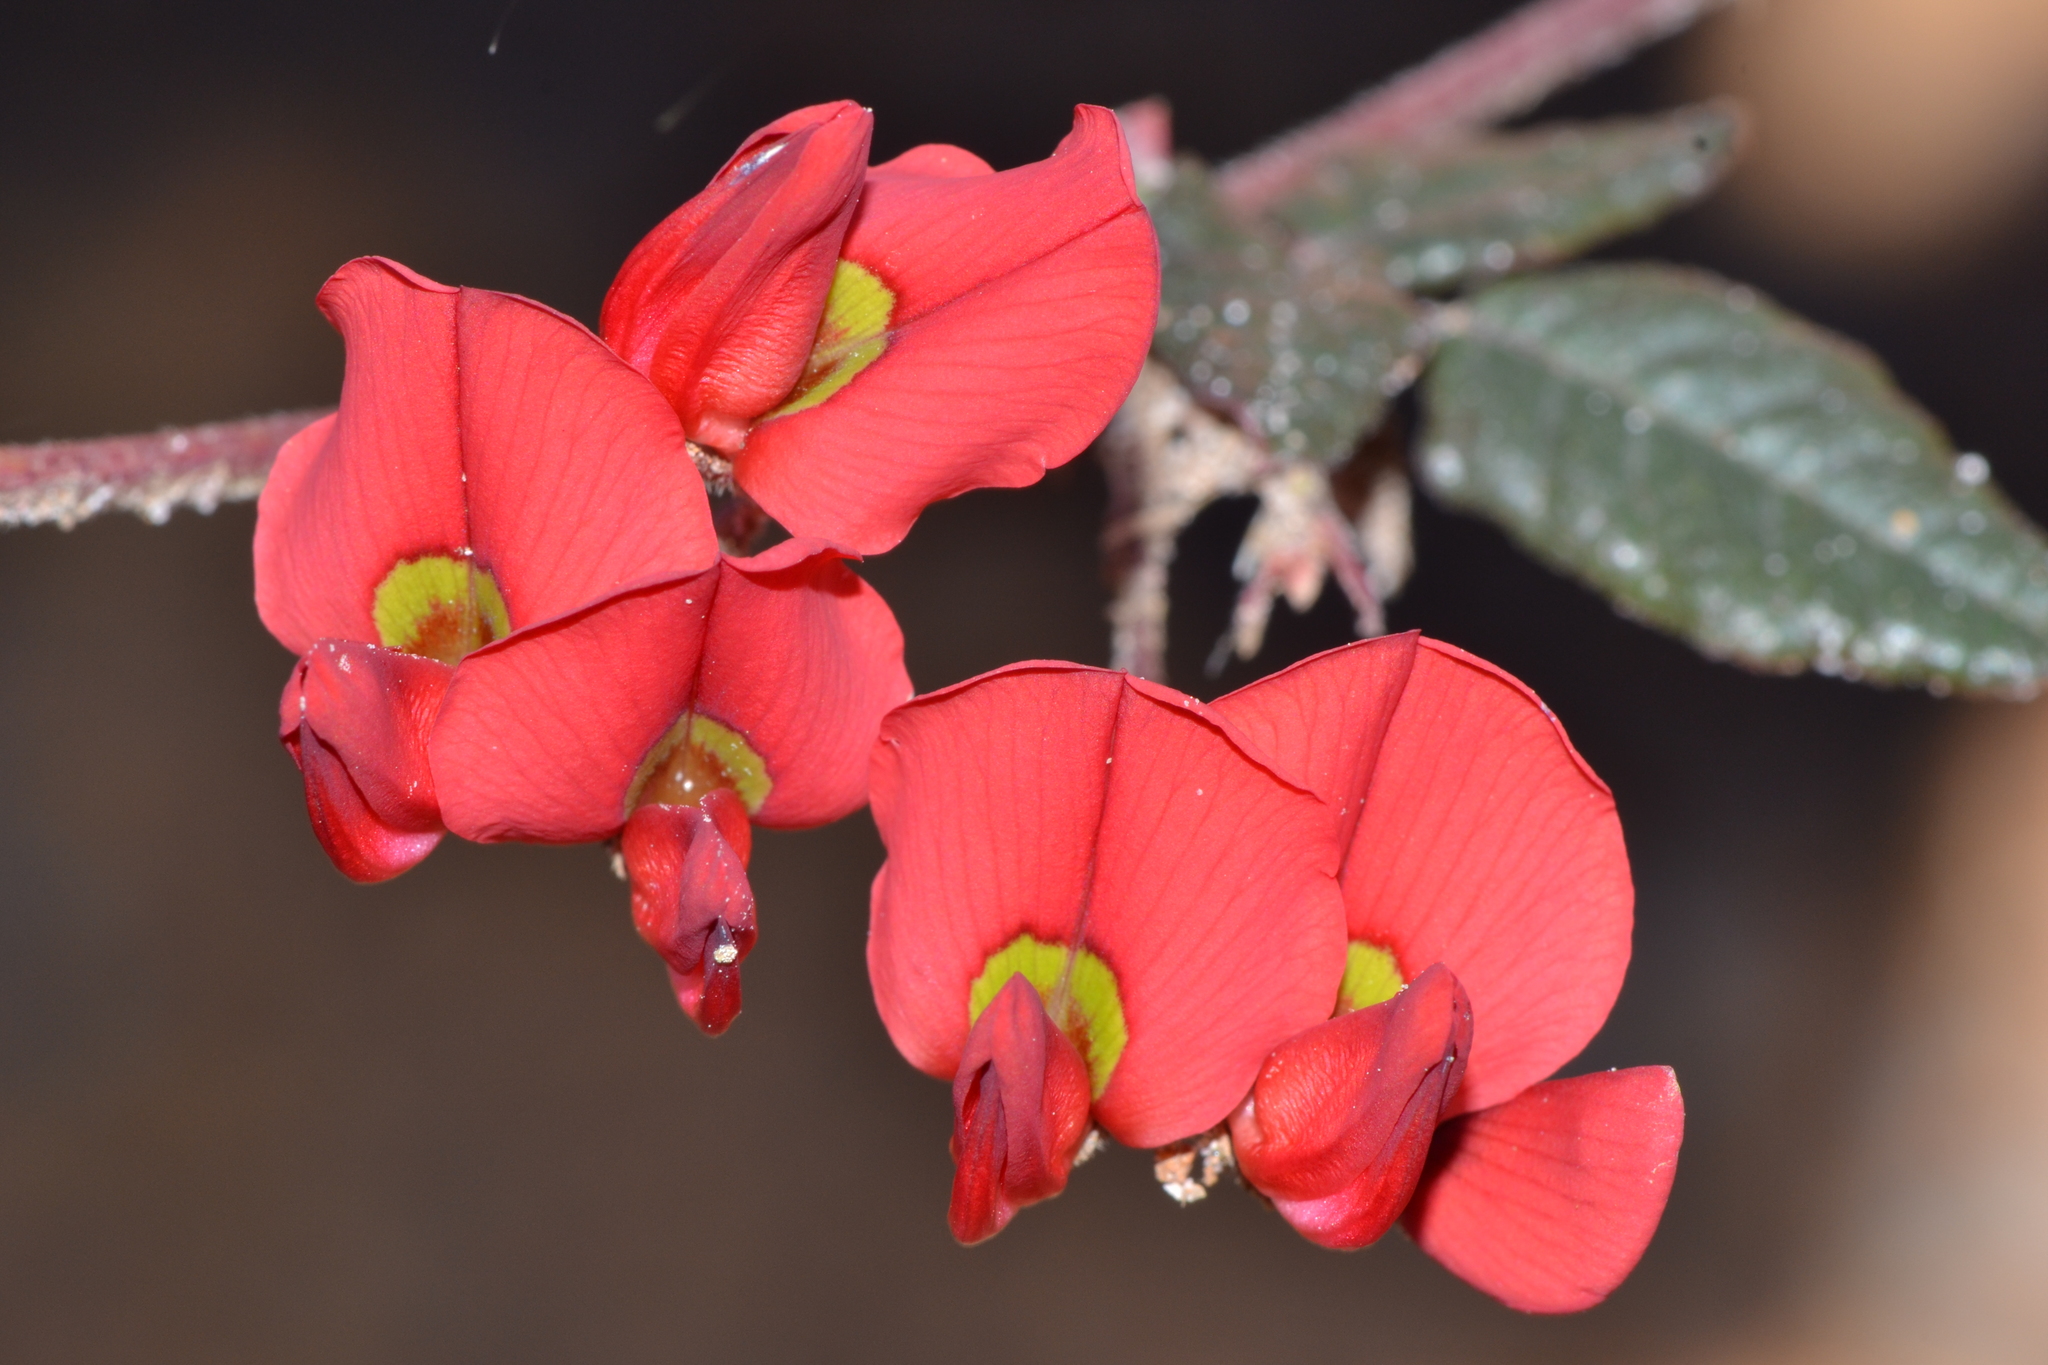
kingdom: Plantae
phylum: Tracheophyta
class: Magnoliopsida
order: Fabales
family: Fabaceae
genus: Kennedia
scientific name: Kennedia prostrata
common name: Running-postman
